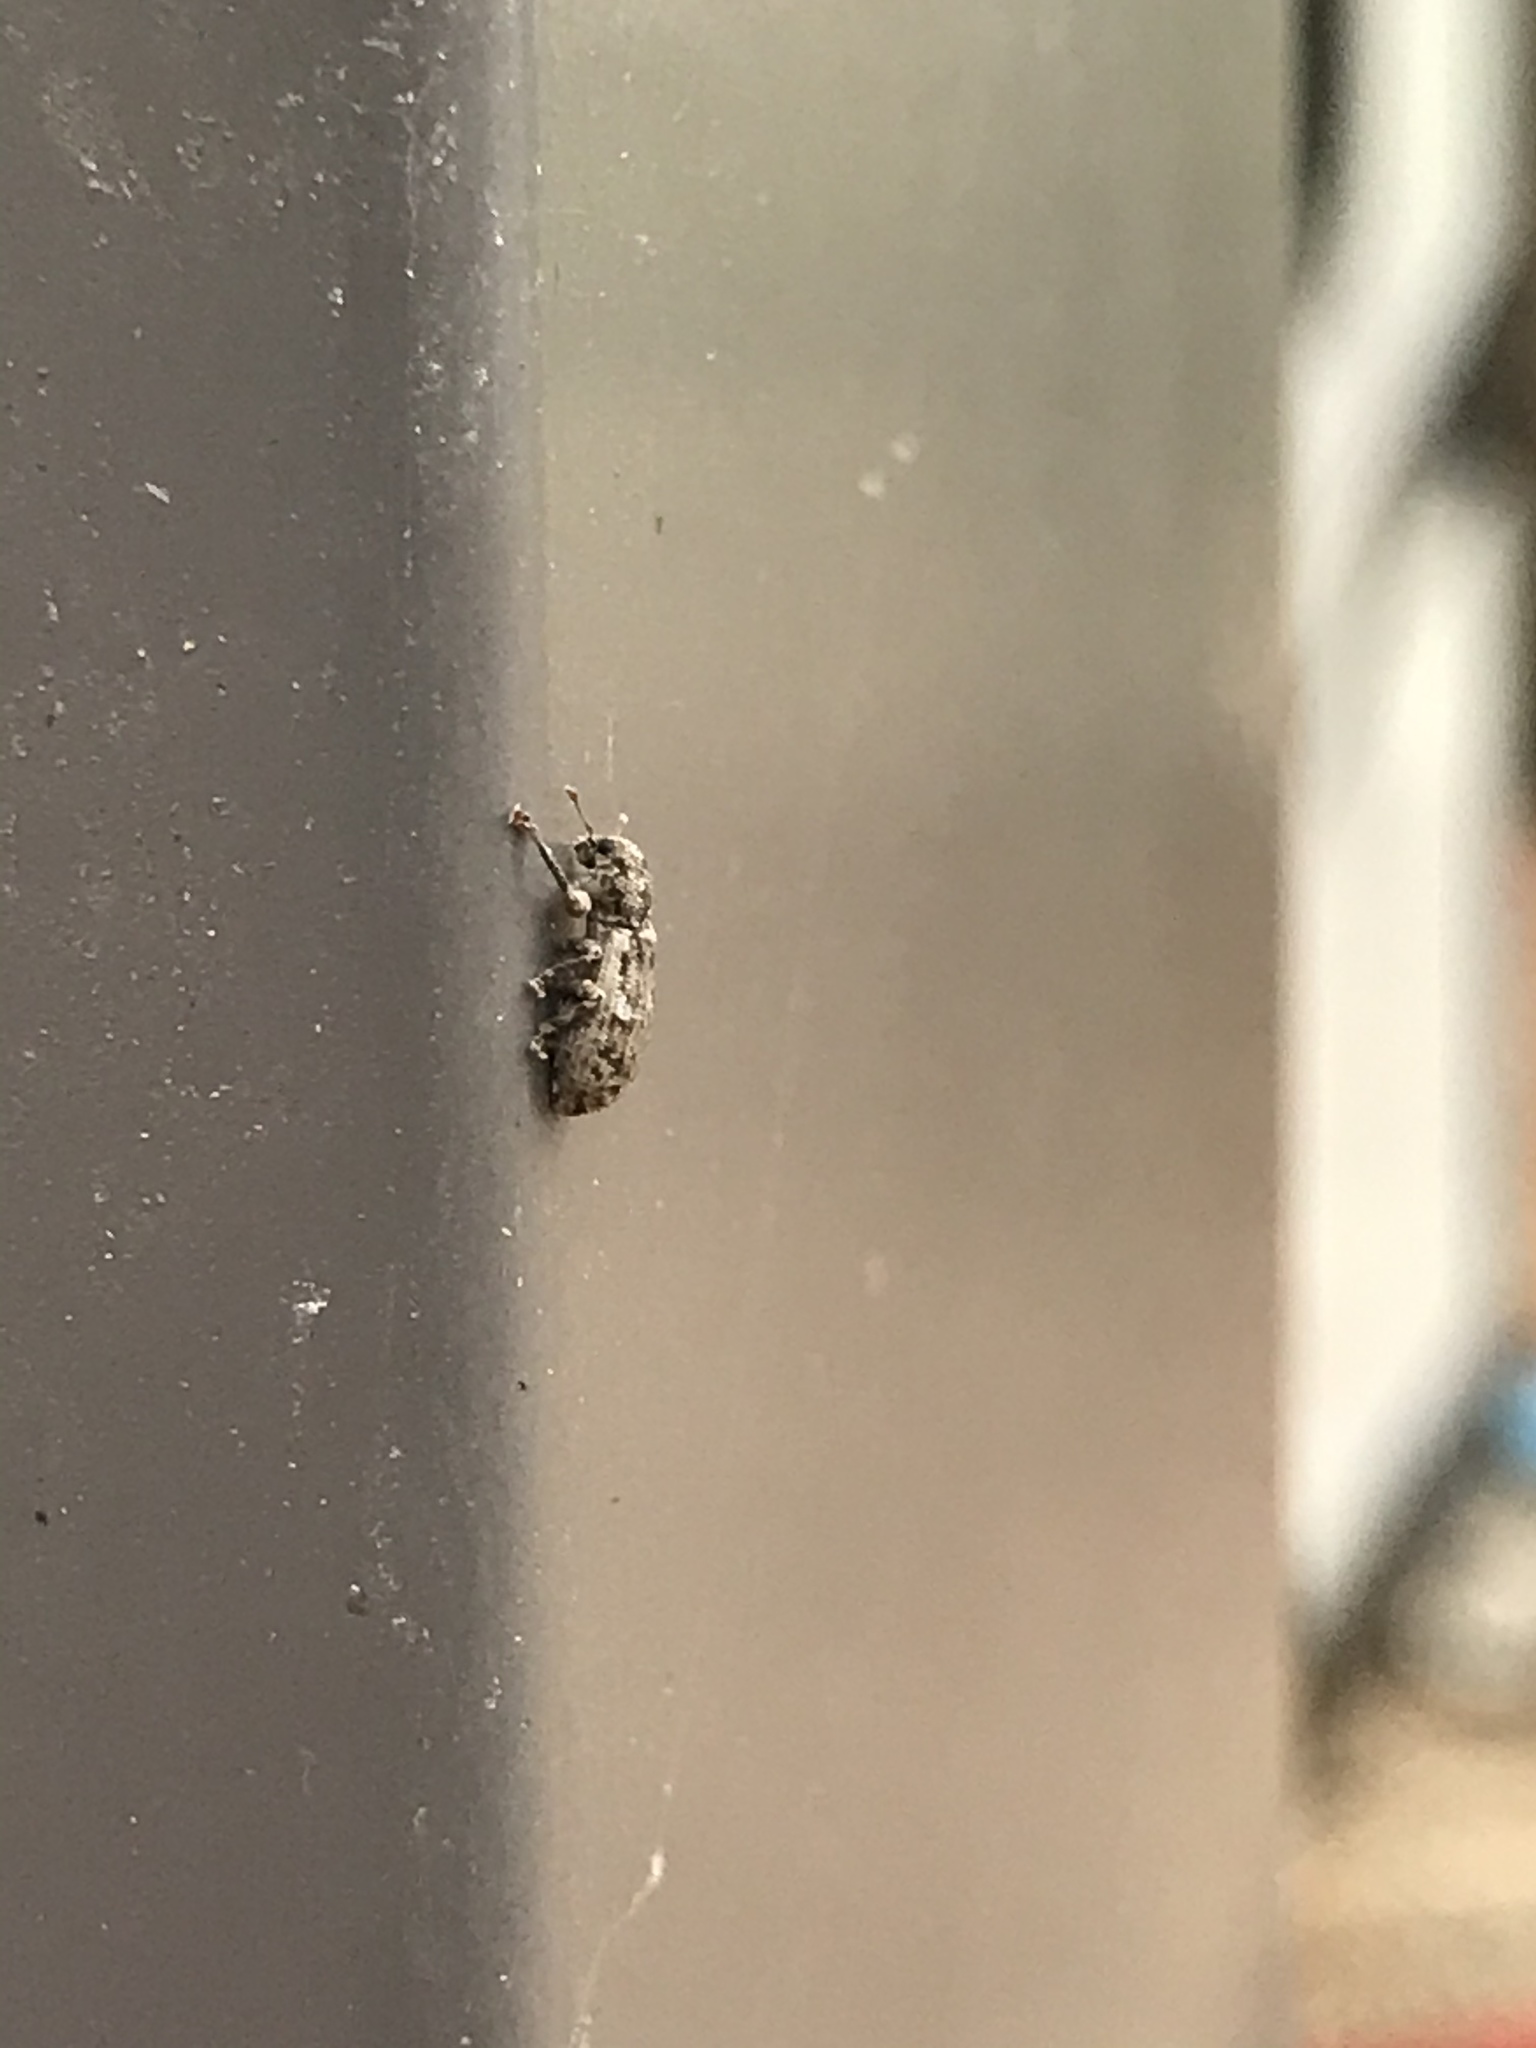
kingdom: Animalia
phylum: Arthropoda
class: Insecta
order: Coleoptera
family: Curculionidae
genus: Pandeleteius
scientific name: Pandeleteius hilaris
